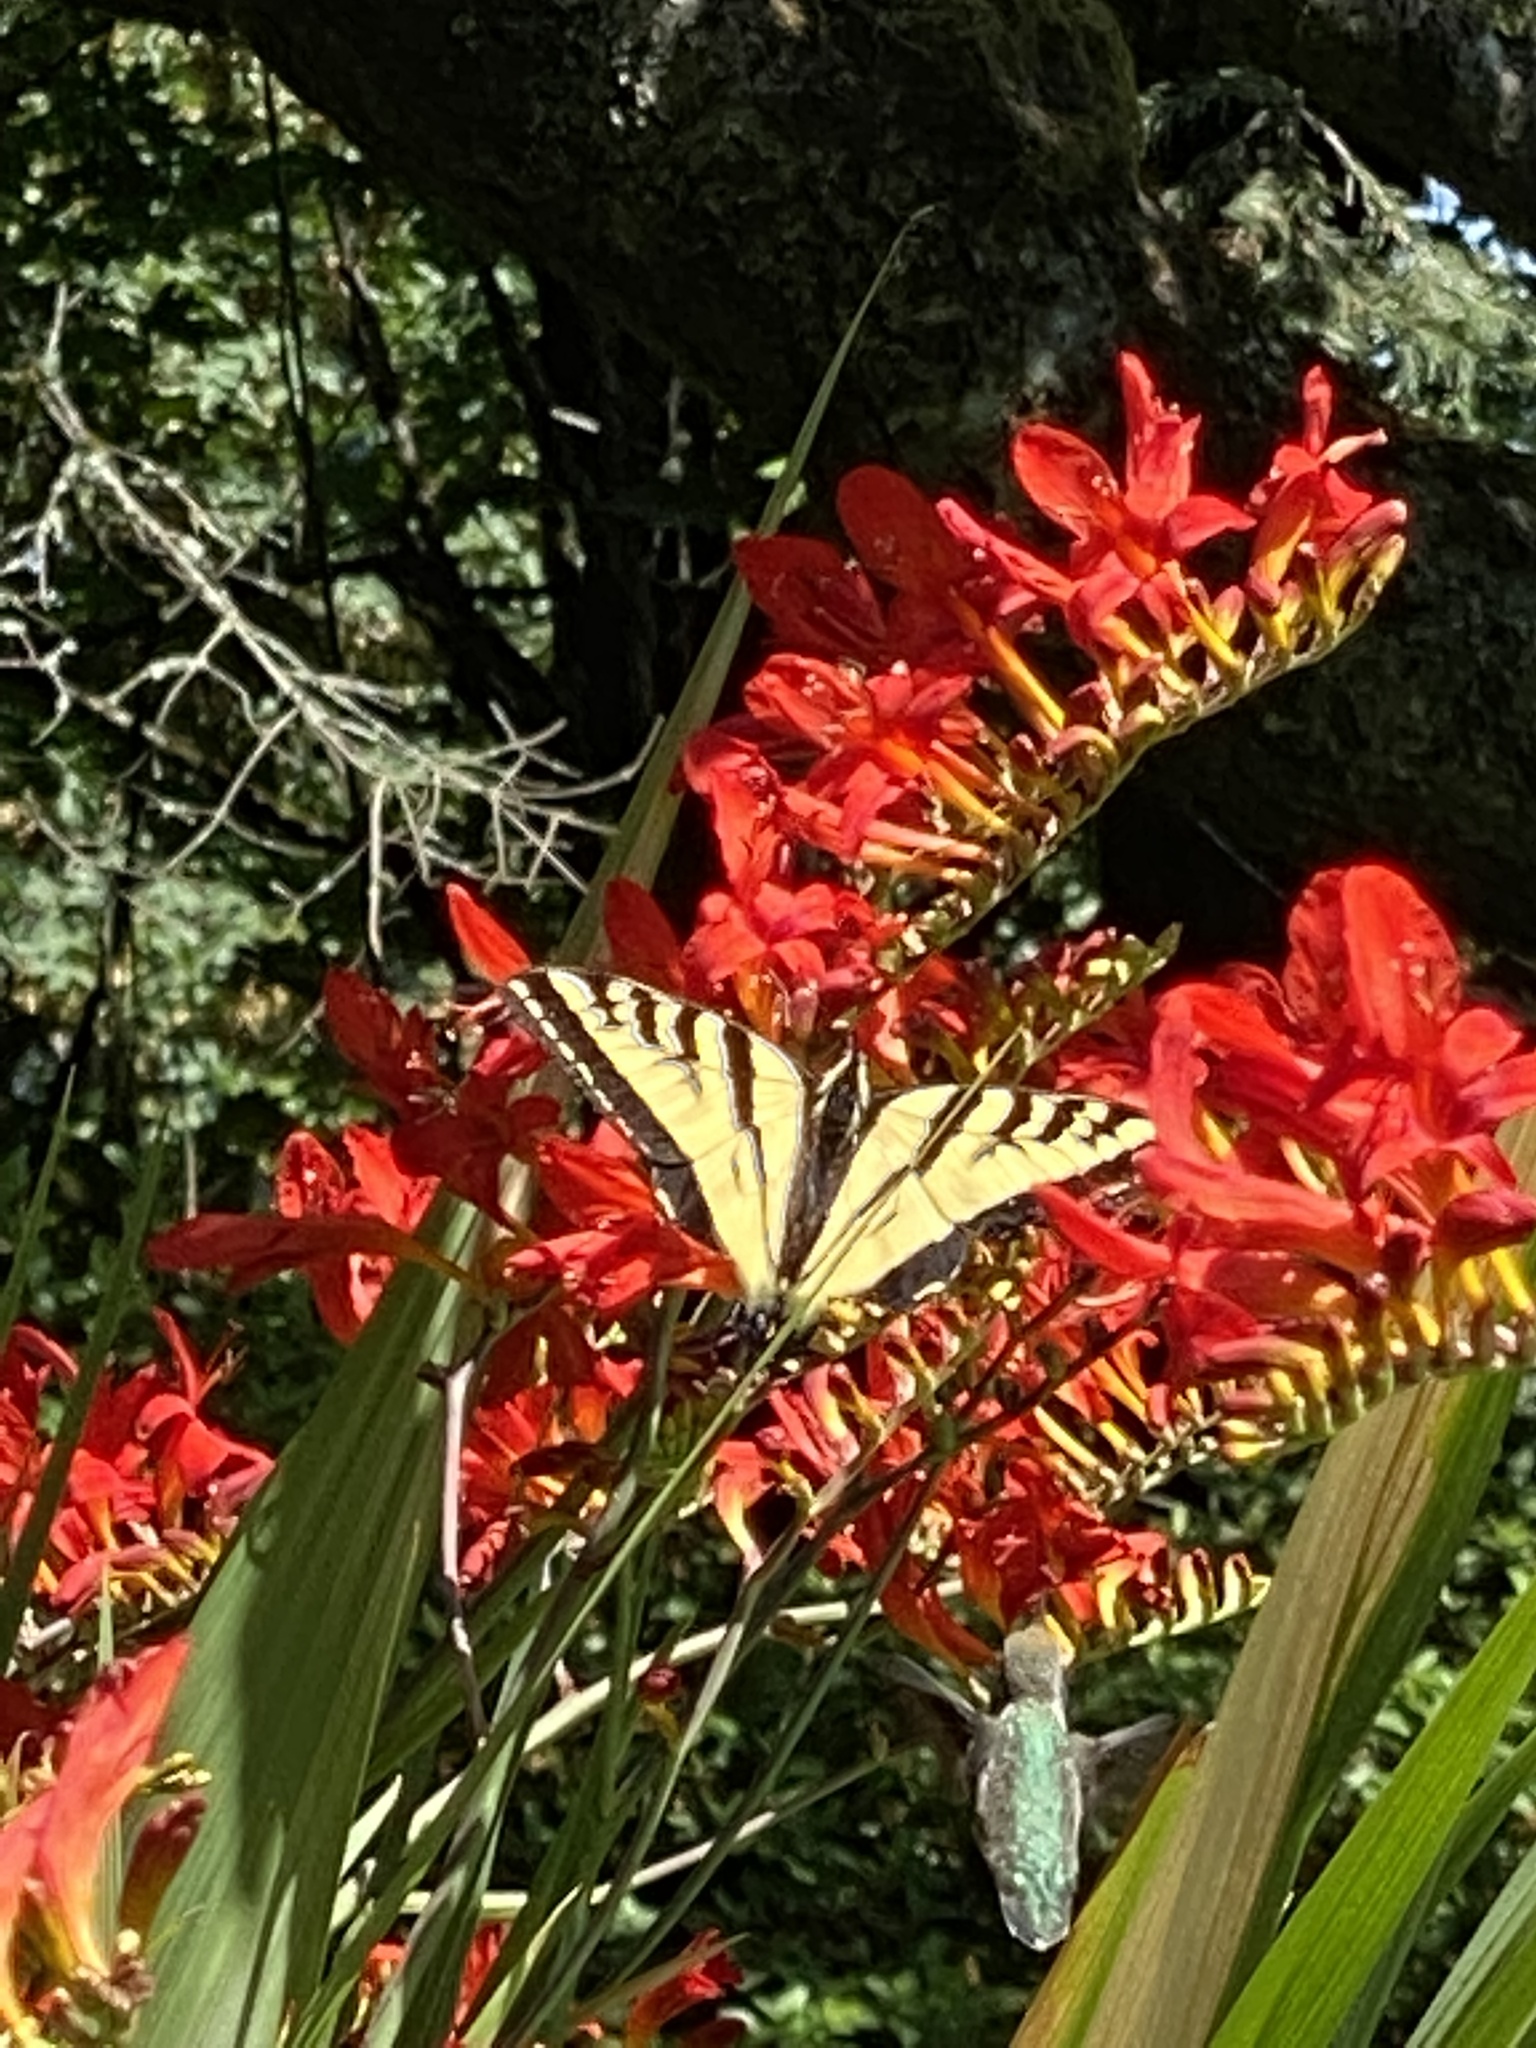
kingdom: Animalia
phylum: Arthropoda
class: Insecta
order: Lepidoptera
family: Papilionidae
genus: Papilio
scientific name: Papilio rutulus
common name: Western tiger swallowtail
